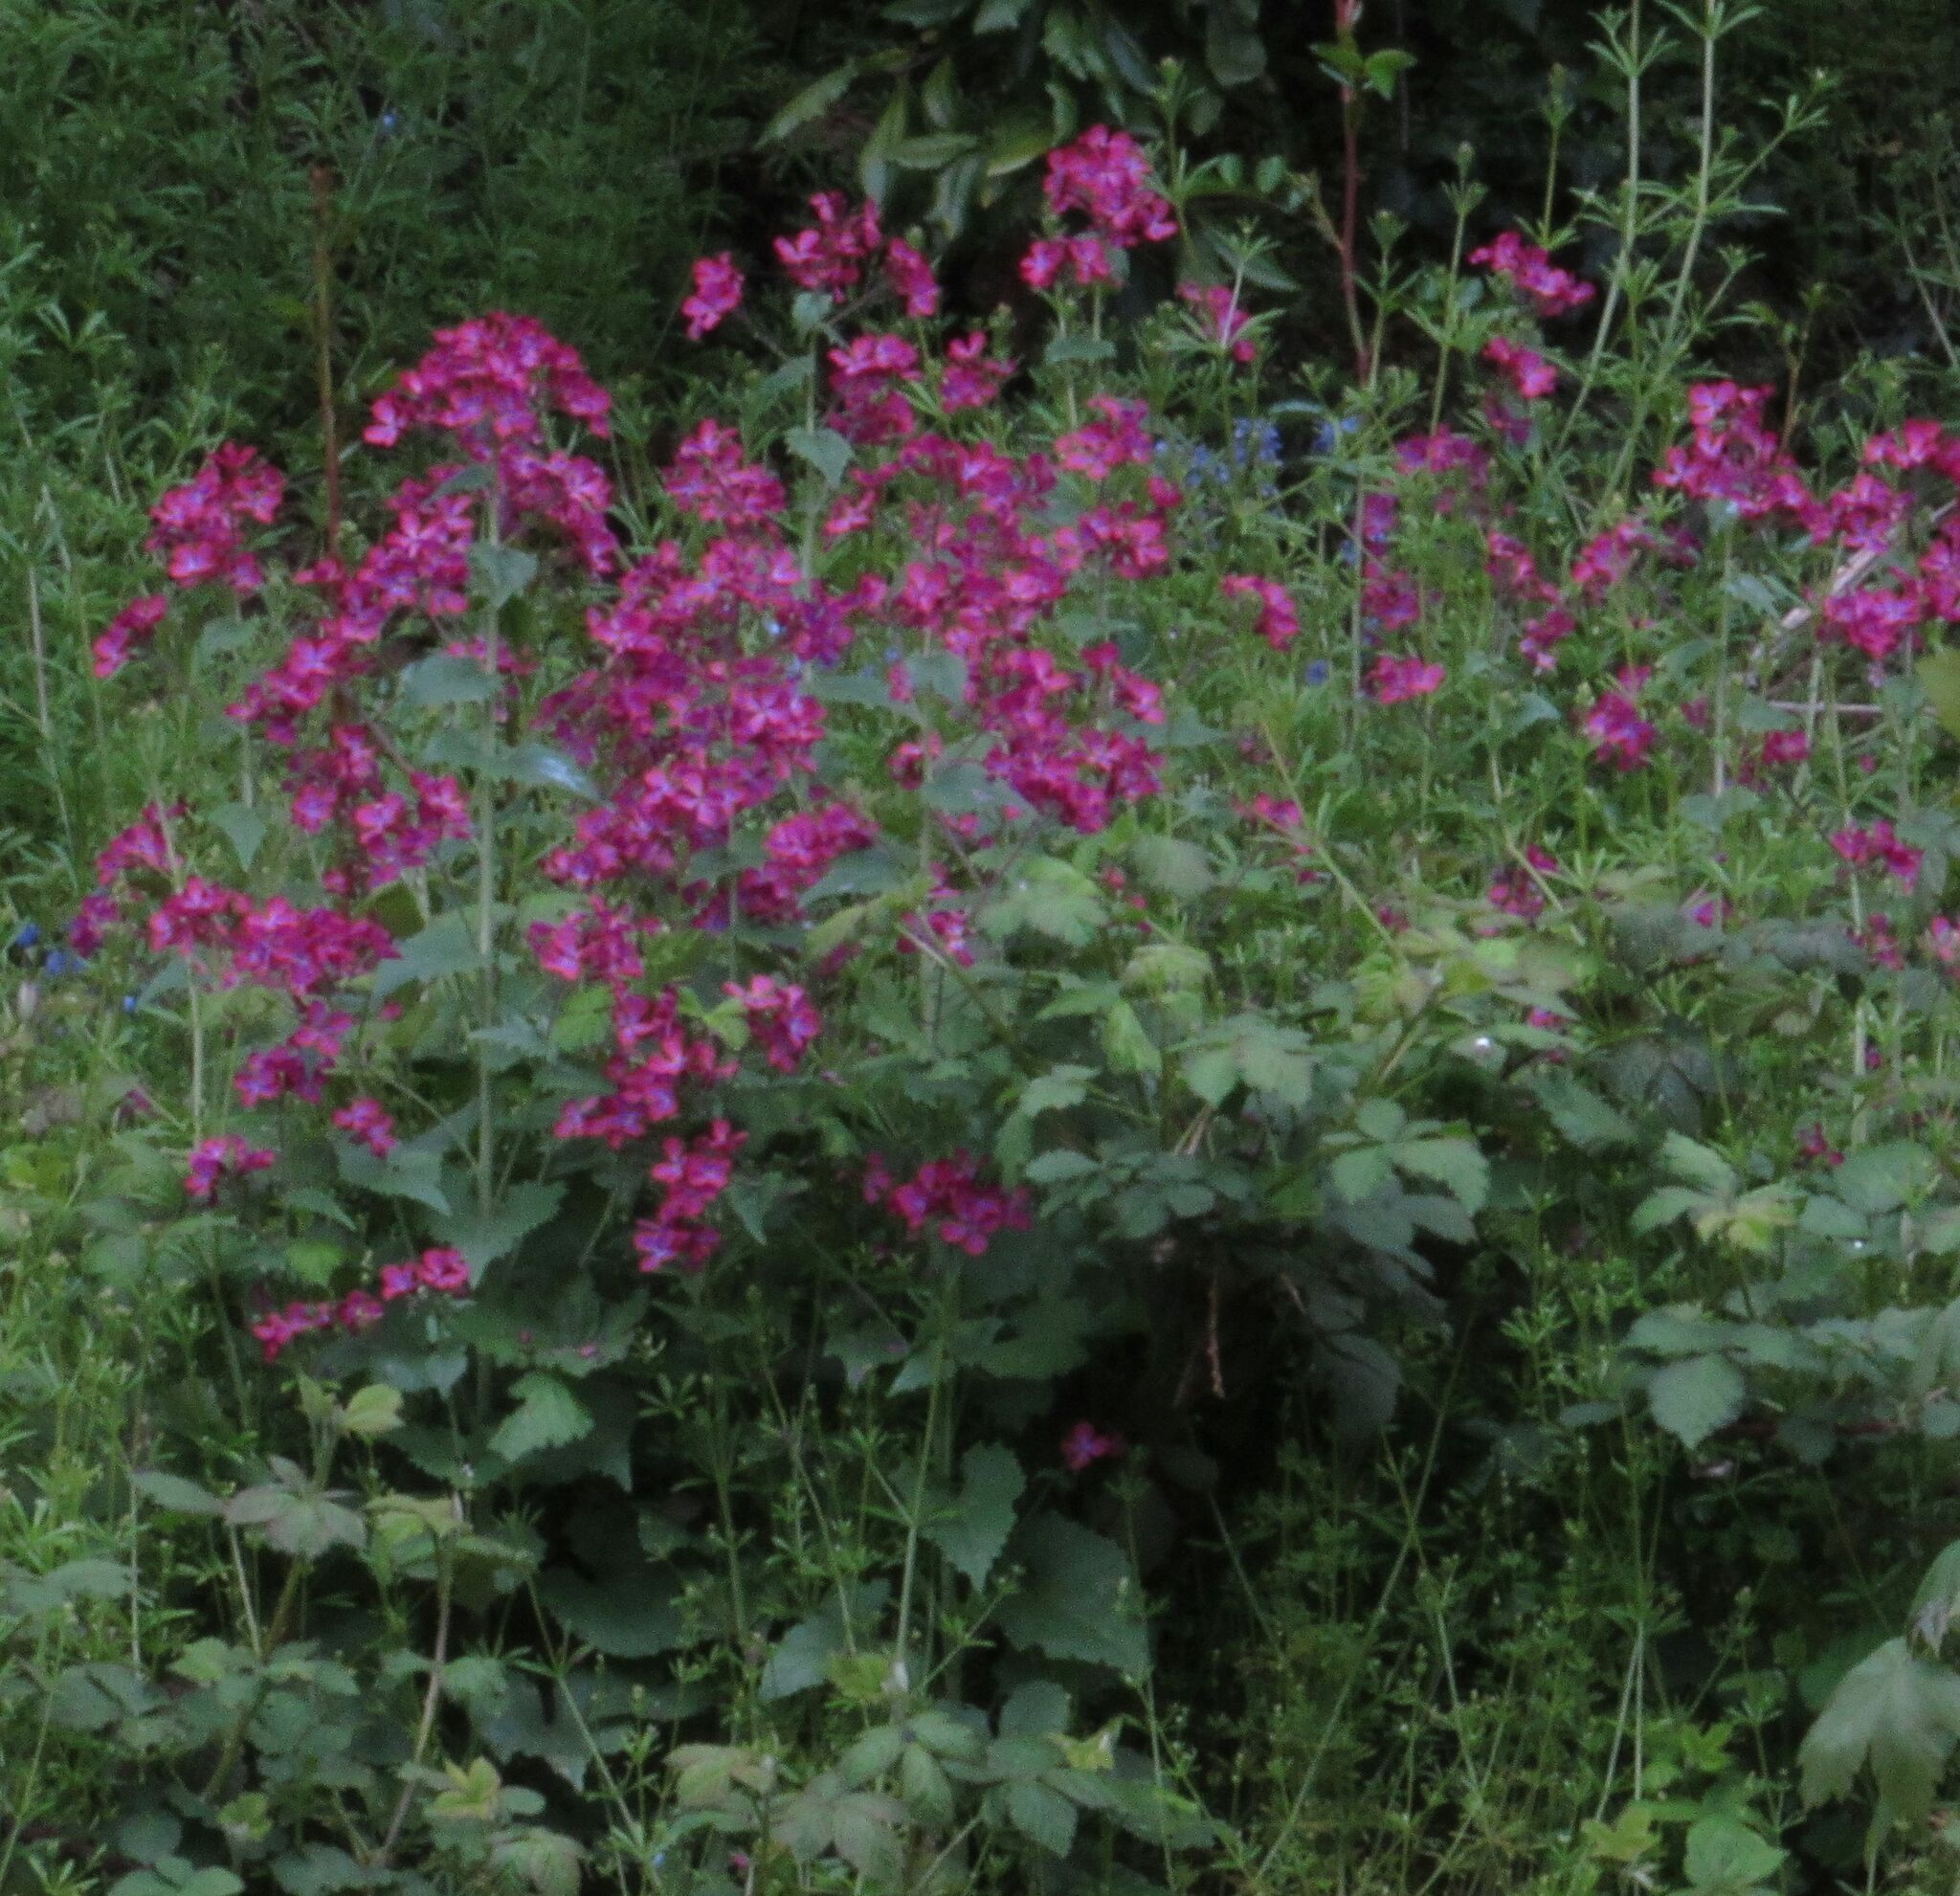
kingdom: Plantae
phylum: Tracheophyta
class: Magnoliopsida
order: Brassicales
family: Brassicaceae
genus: Lunaria
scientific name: Lunaria annua
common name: Honesty
